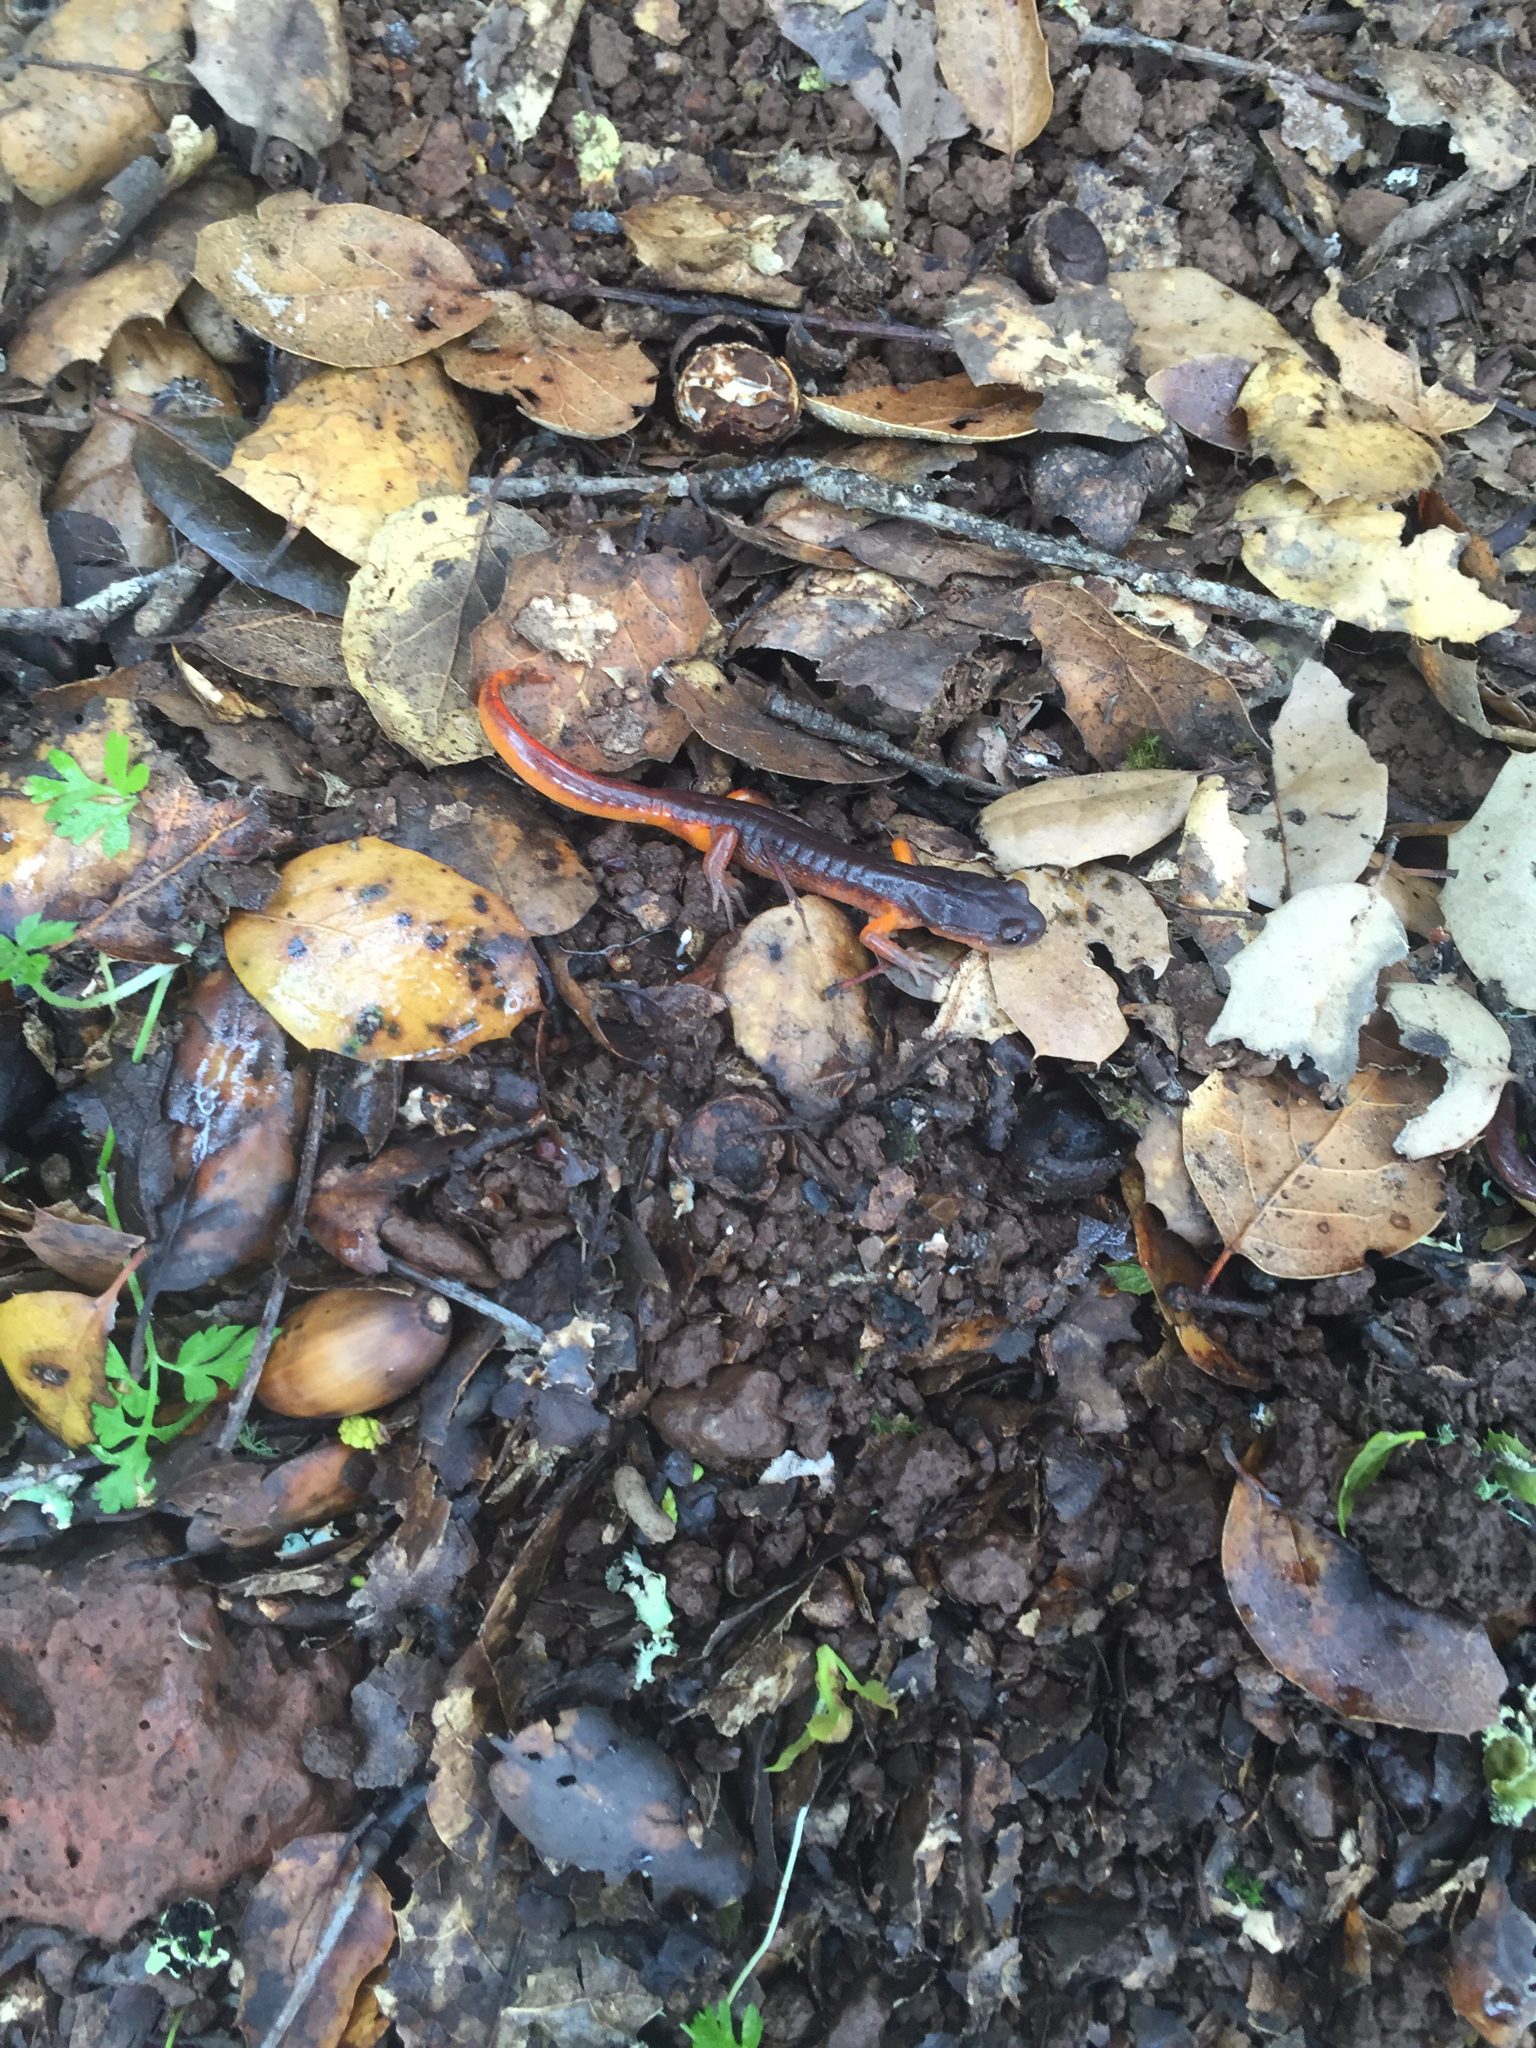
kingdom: Animalia
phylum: Chordata
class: Amphibia
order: Caudata
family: Plethodontidae
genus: Ensatina
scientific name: Ensatina eschscholtzii
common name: Ensatina
